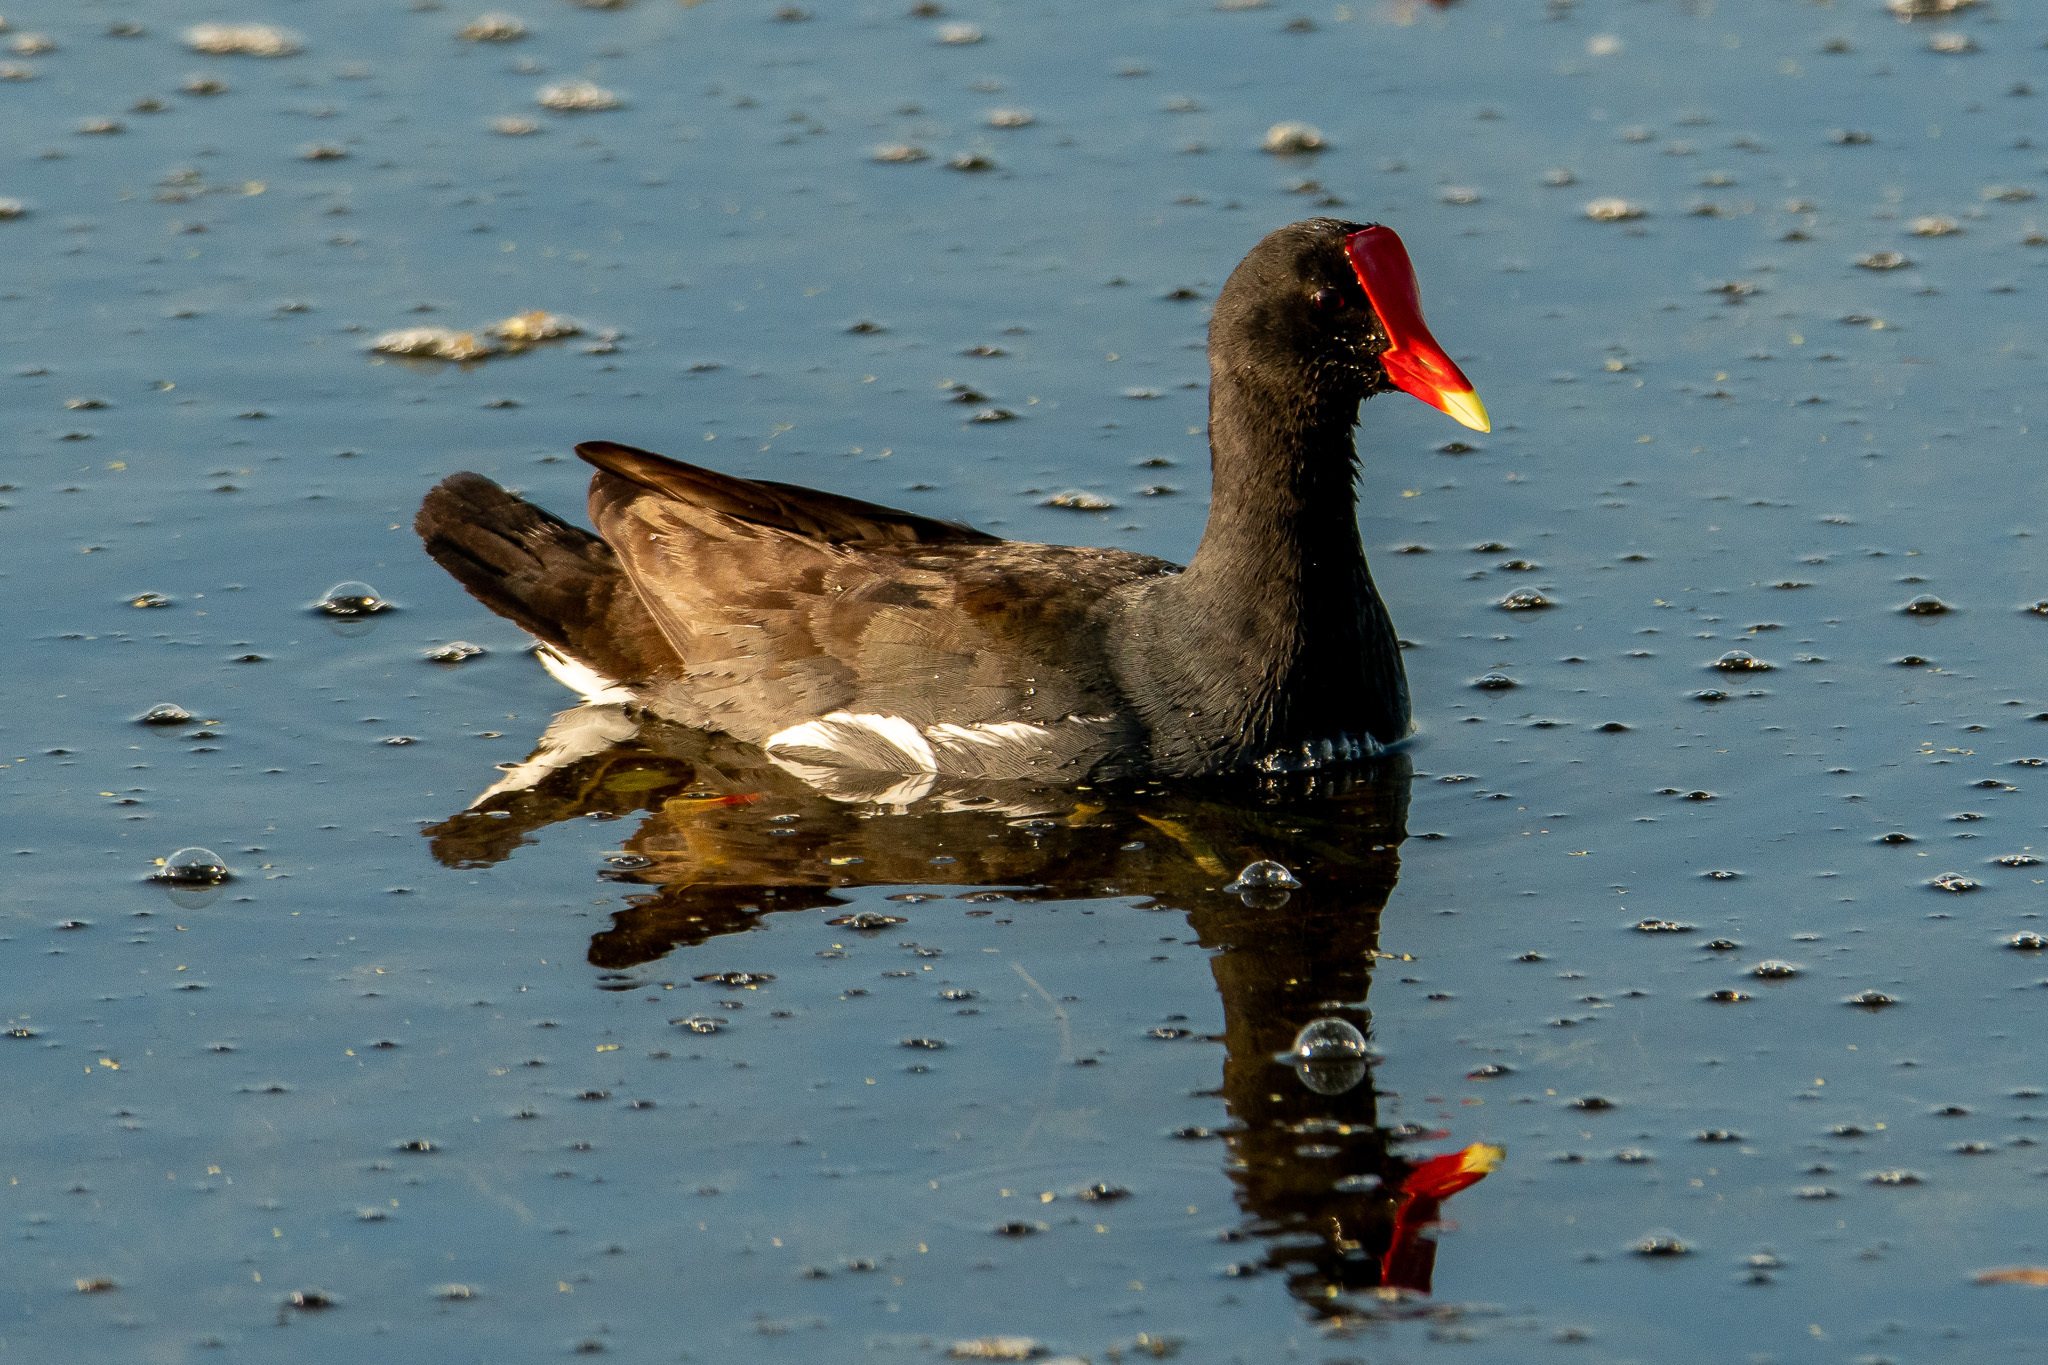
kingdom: Animalia
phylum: Chordata
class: Aves
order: Gruiformes
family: Rallidae
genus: Gallinula
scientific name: Gallinula chloropus
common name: Common moorhen
